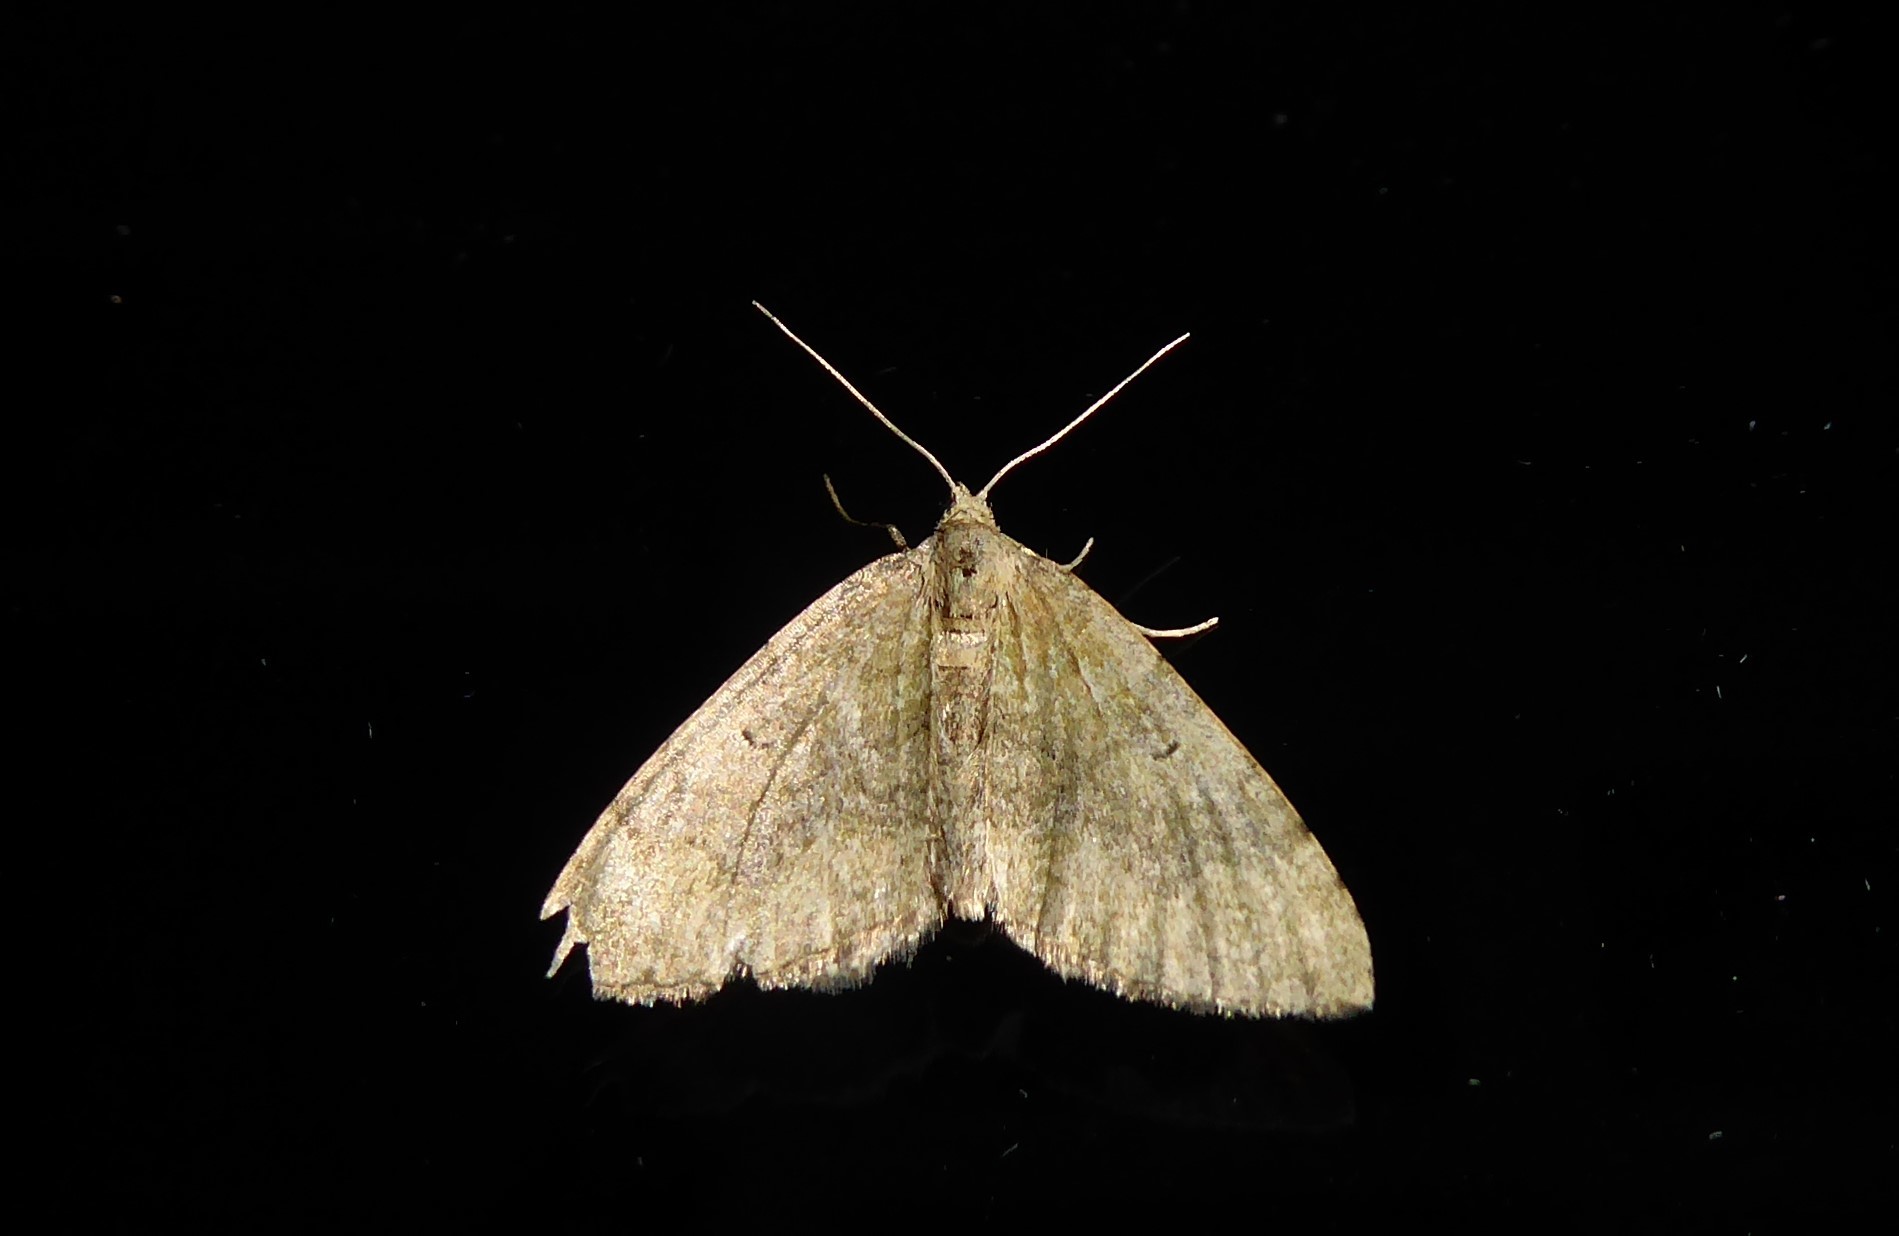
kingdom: Animalia
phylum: Arthropoda
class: Insecta
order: Lepidoptera
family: Geometridae
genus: Epyaxa
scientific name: Epyaxa rosearia
